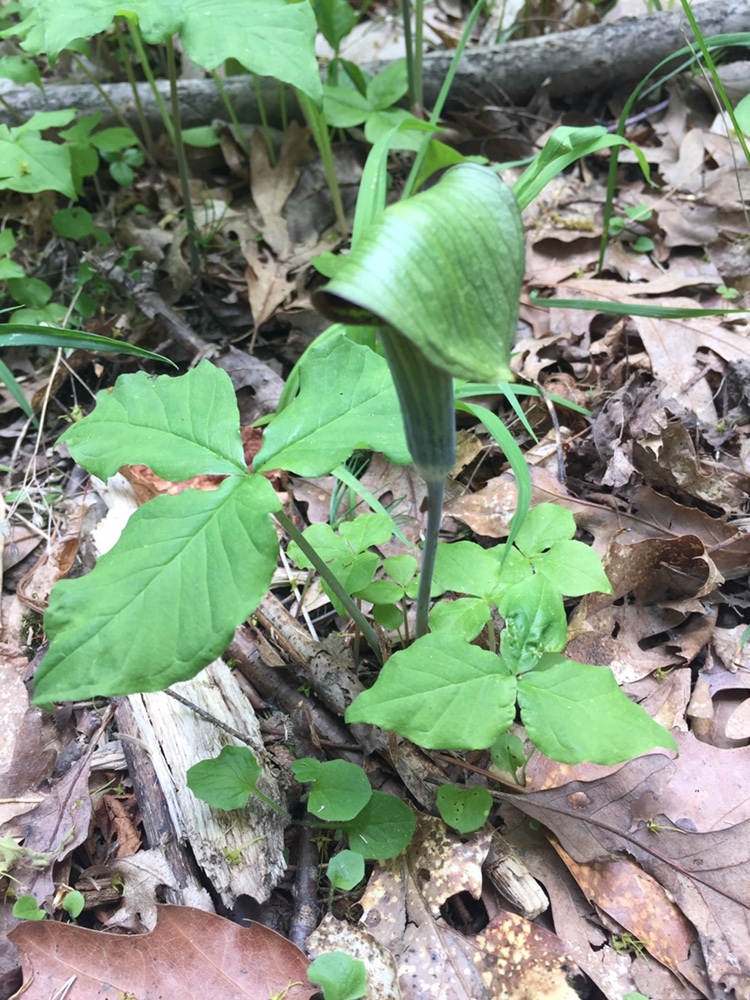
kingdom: Plantae
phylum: Tracheophyta
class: Liliopsida
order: Alismatales
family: Araceae
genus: Arisaema
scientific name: Arisaema triphyllum
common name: Jack-in-the-pulpit
